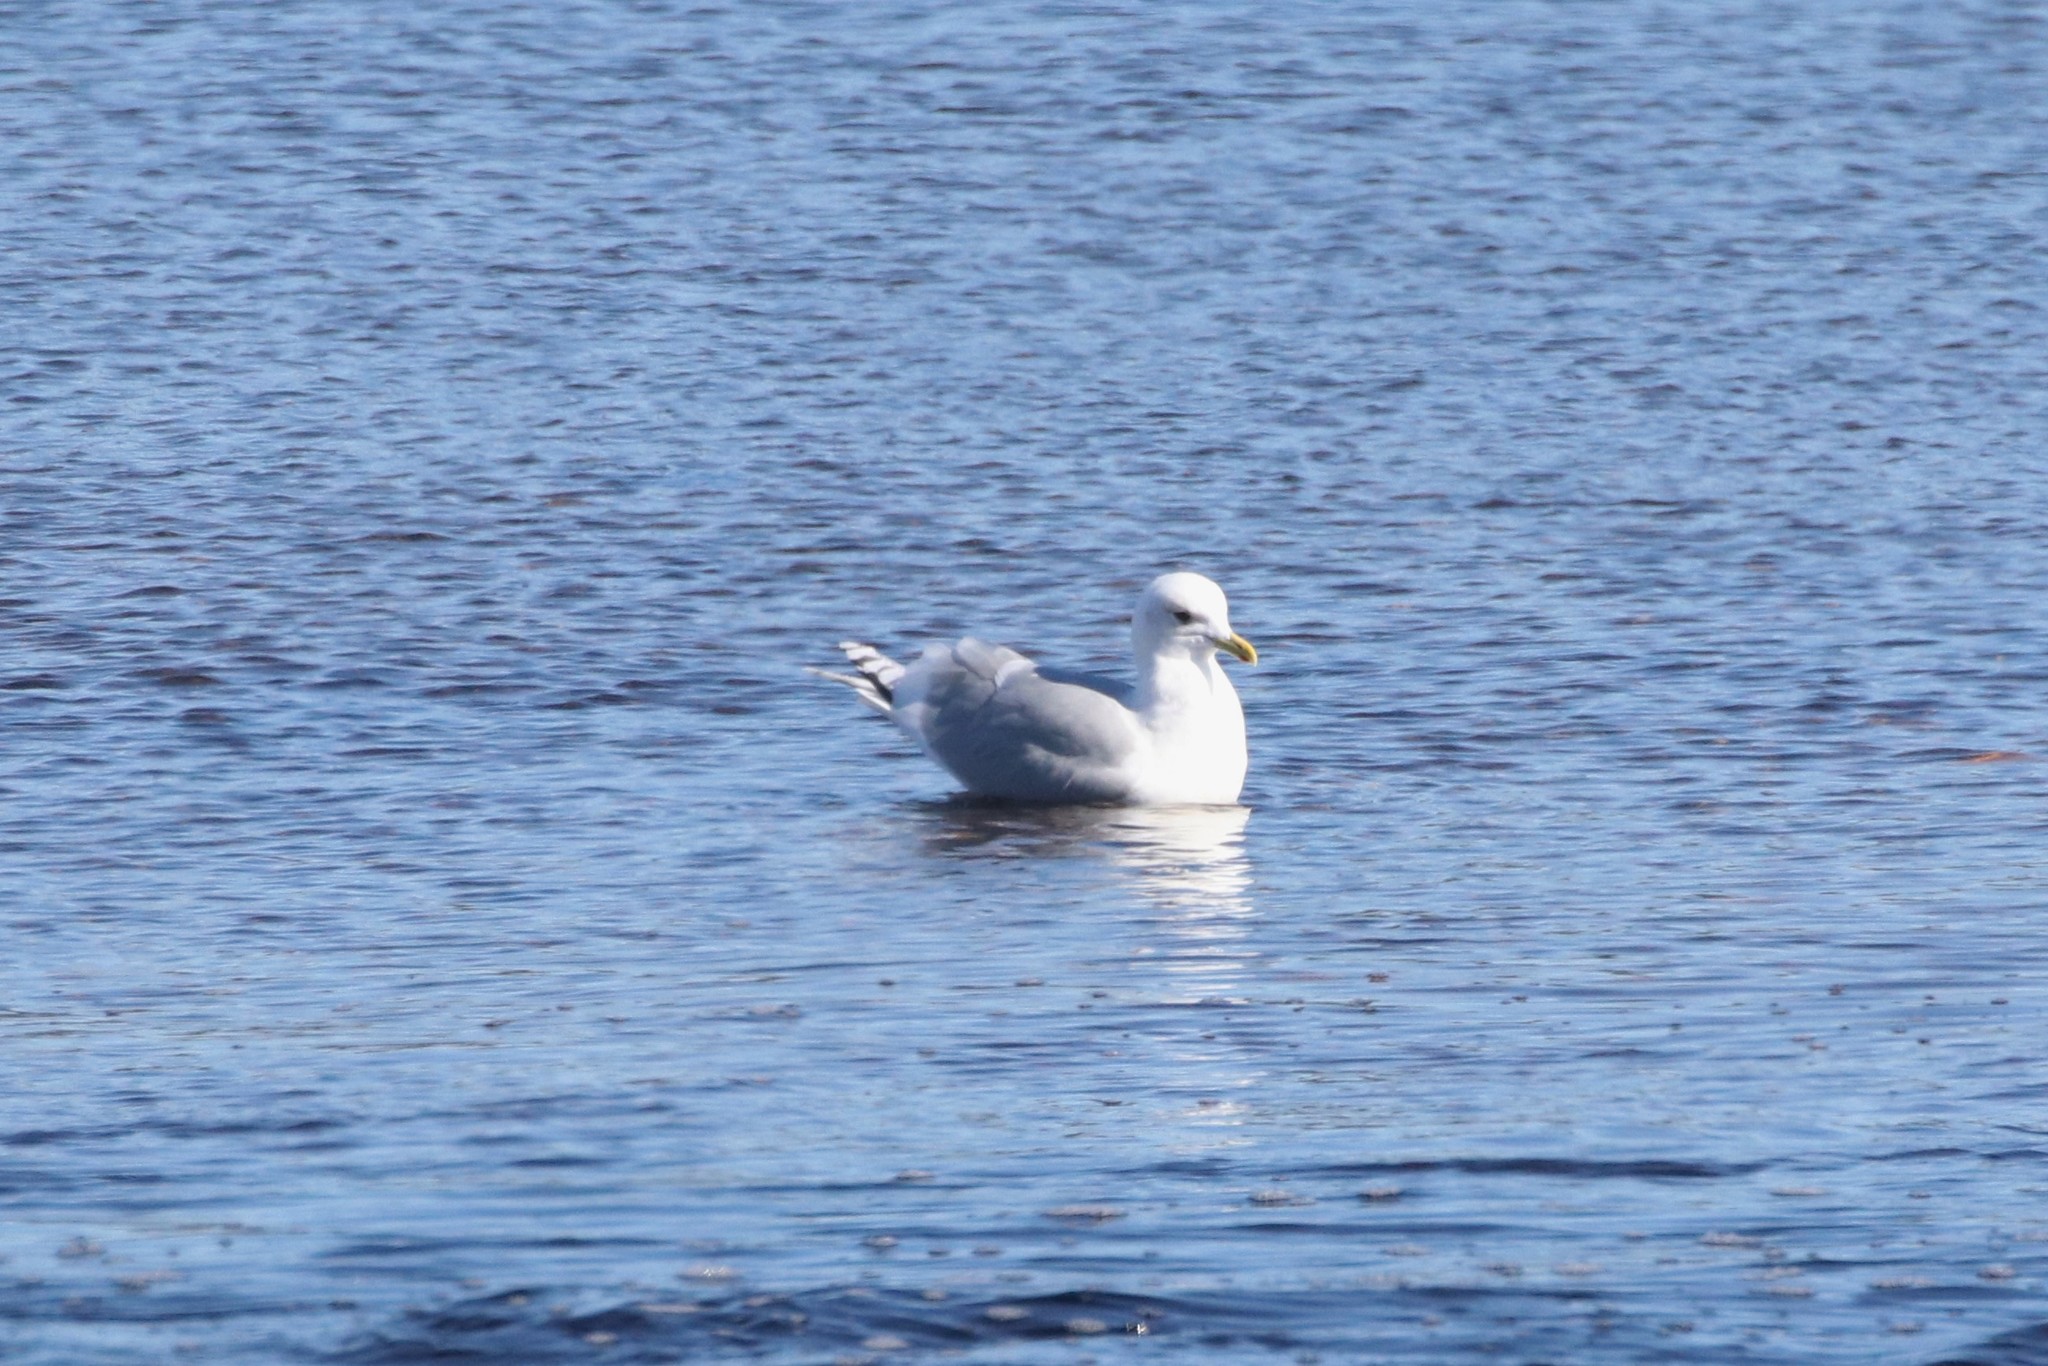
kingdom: Animalia
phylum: Chordata
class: Aves
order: Charadriiformes
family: Laridae
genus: Larus
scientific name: Larus glaucoides
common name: Iceland gull
